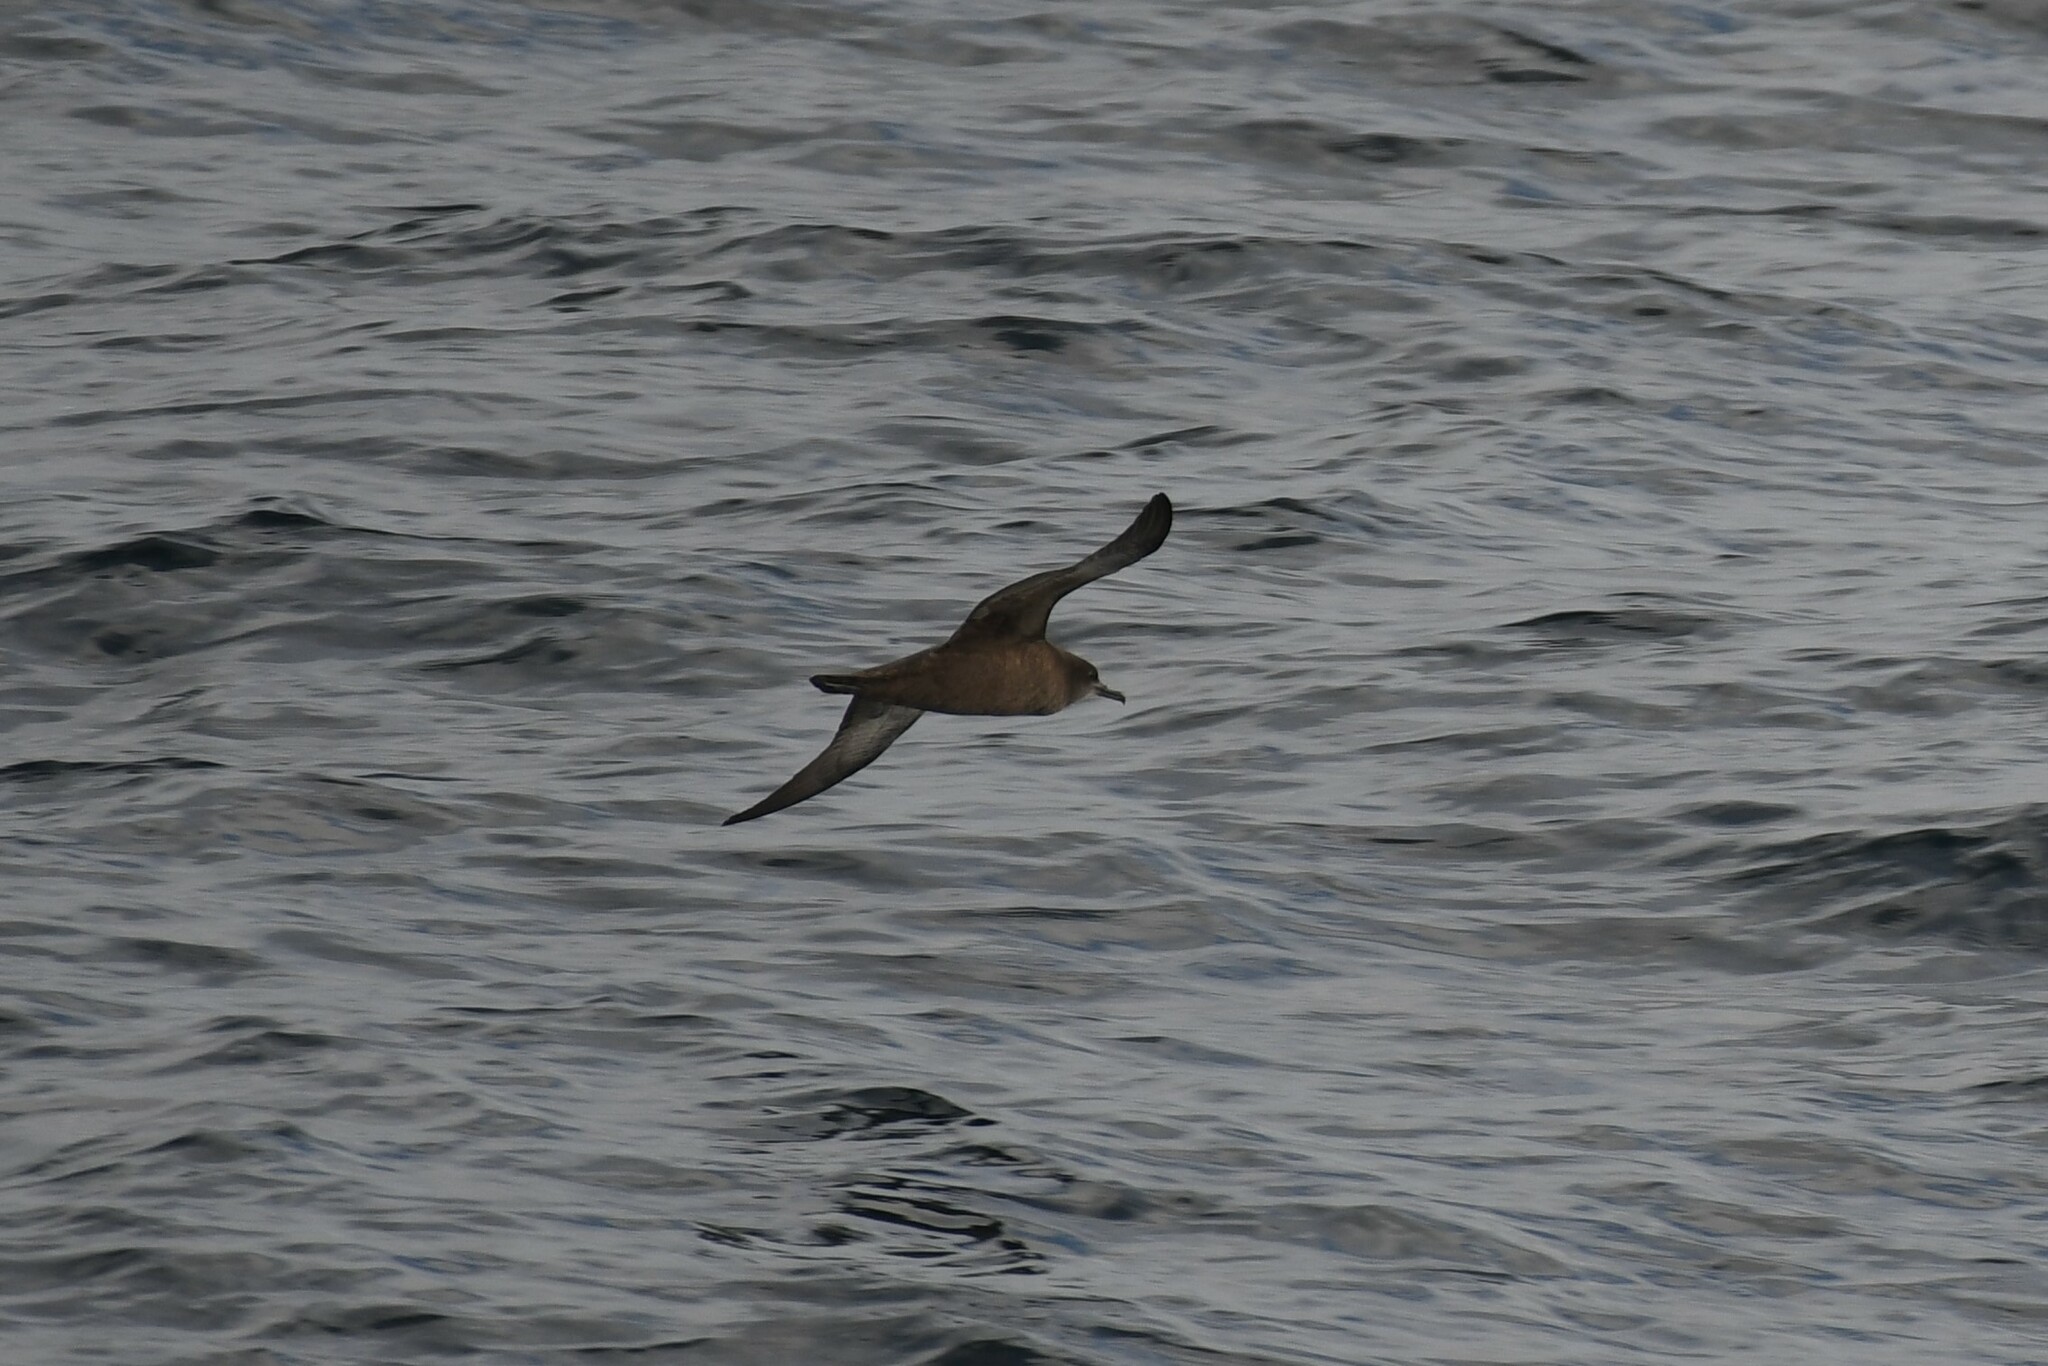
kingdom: Animalia
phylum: Chordata
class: Aves
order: Procellariiformes
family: Procellariidae
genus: Puffinus
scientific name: Puffinus griseus
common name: Sooty shearwater
